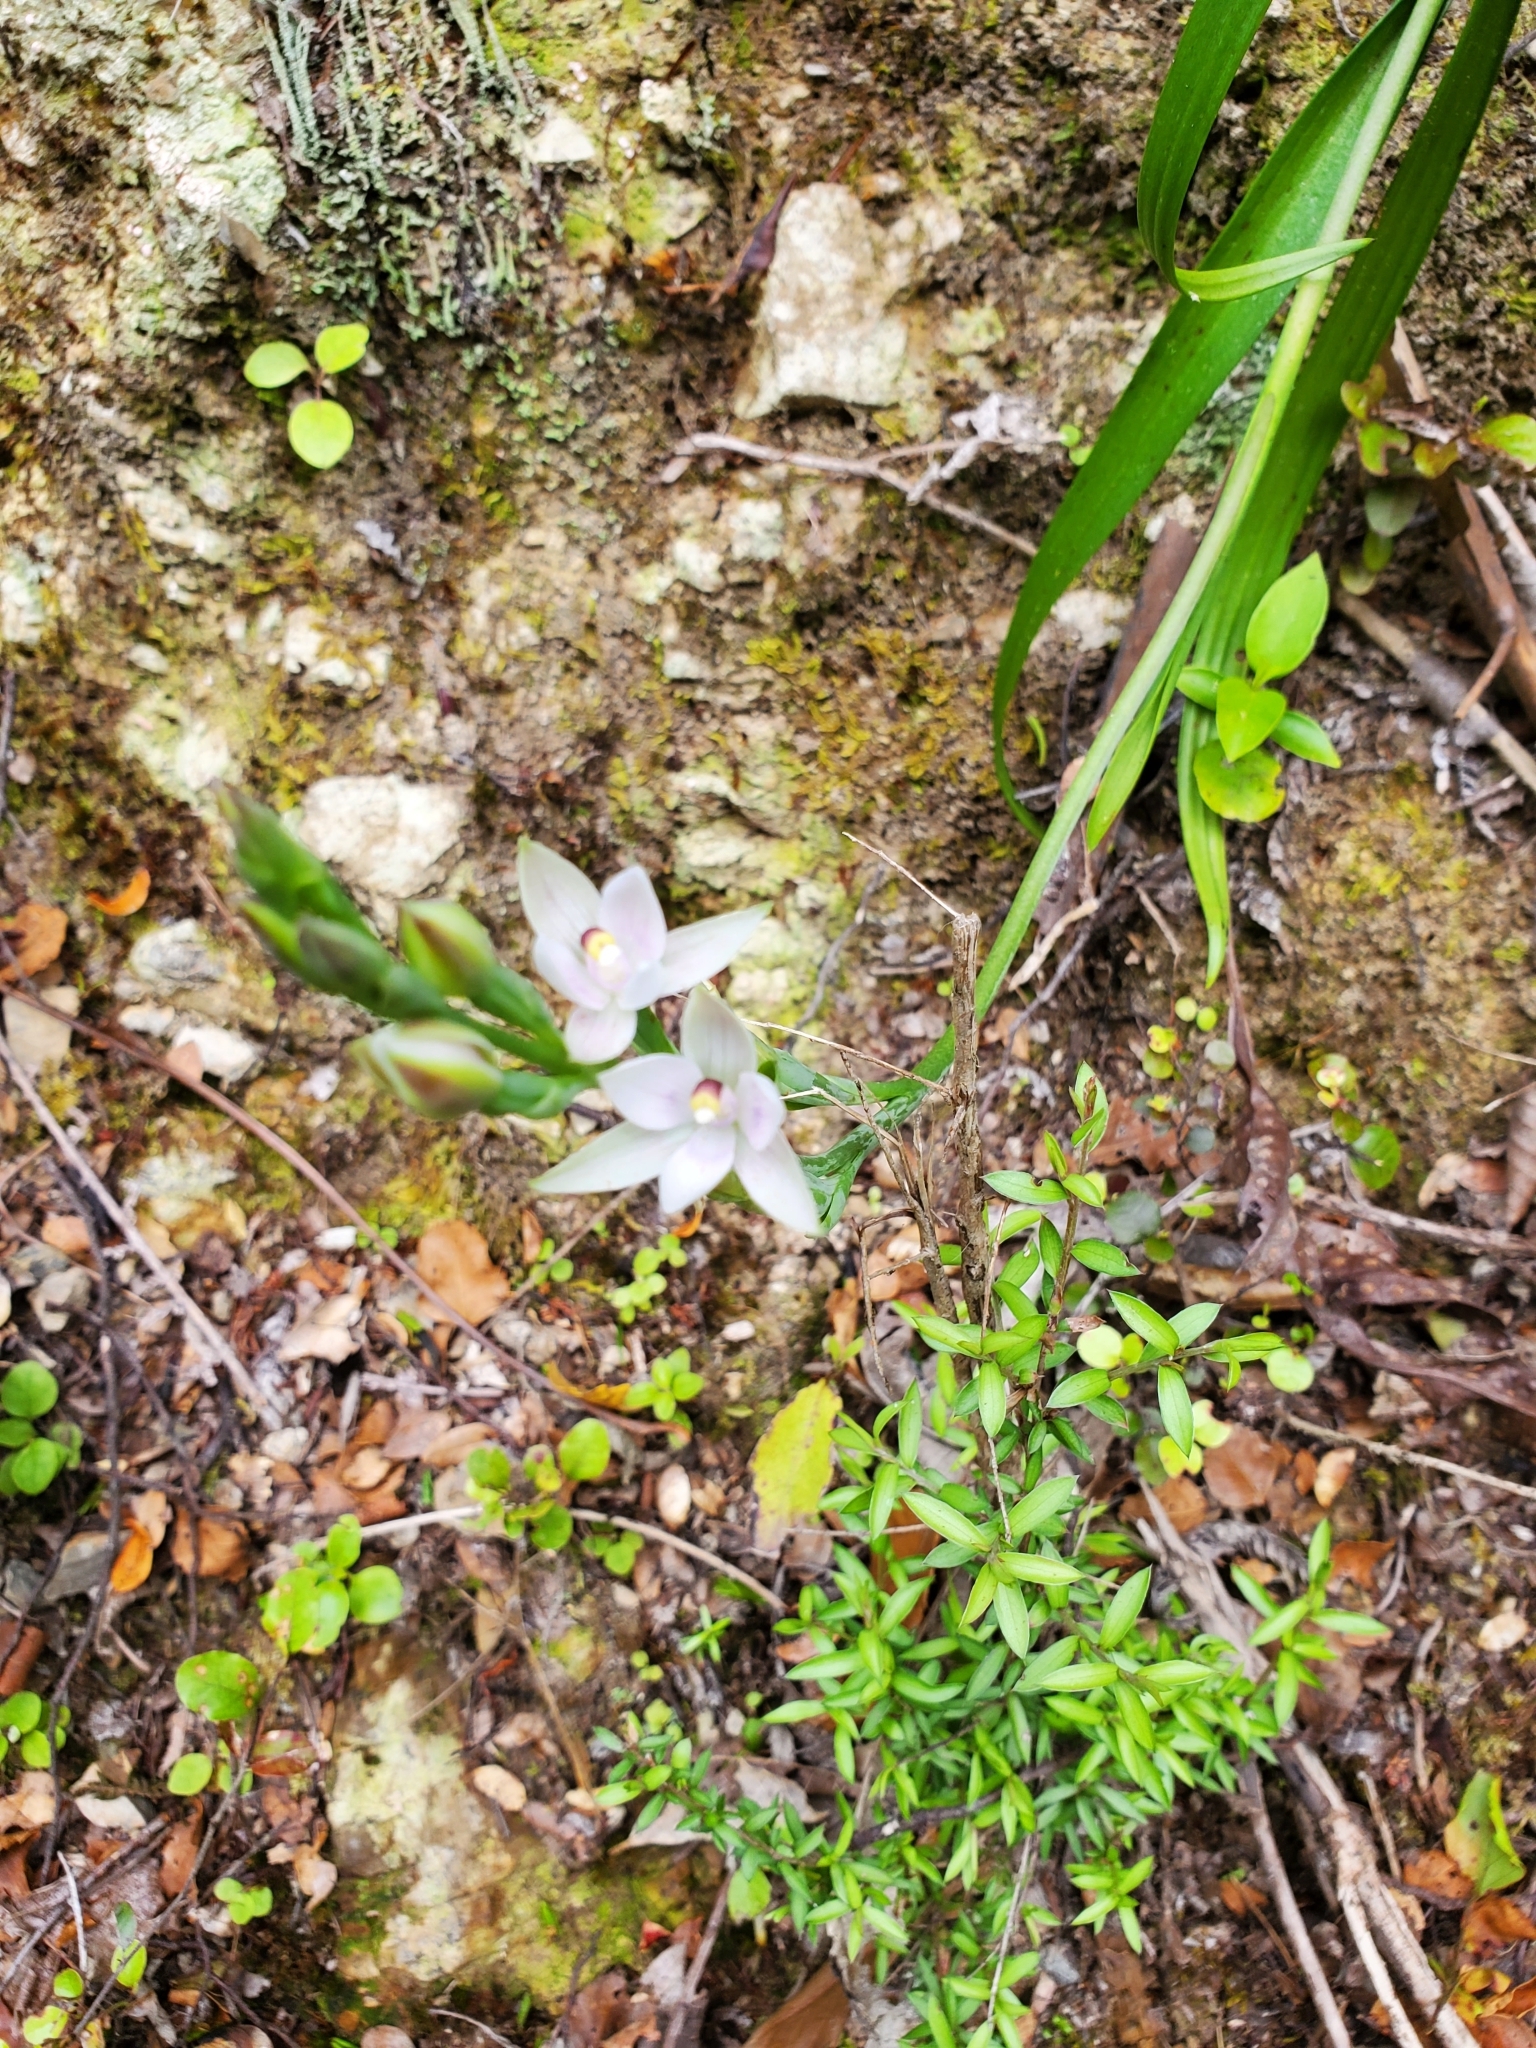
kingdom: Plantae
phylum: Tracheophyta
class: Liliopsida
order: Asparagales
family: Orchidaceae
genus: Thelymitra
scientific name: Thelymitra longifolia
